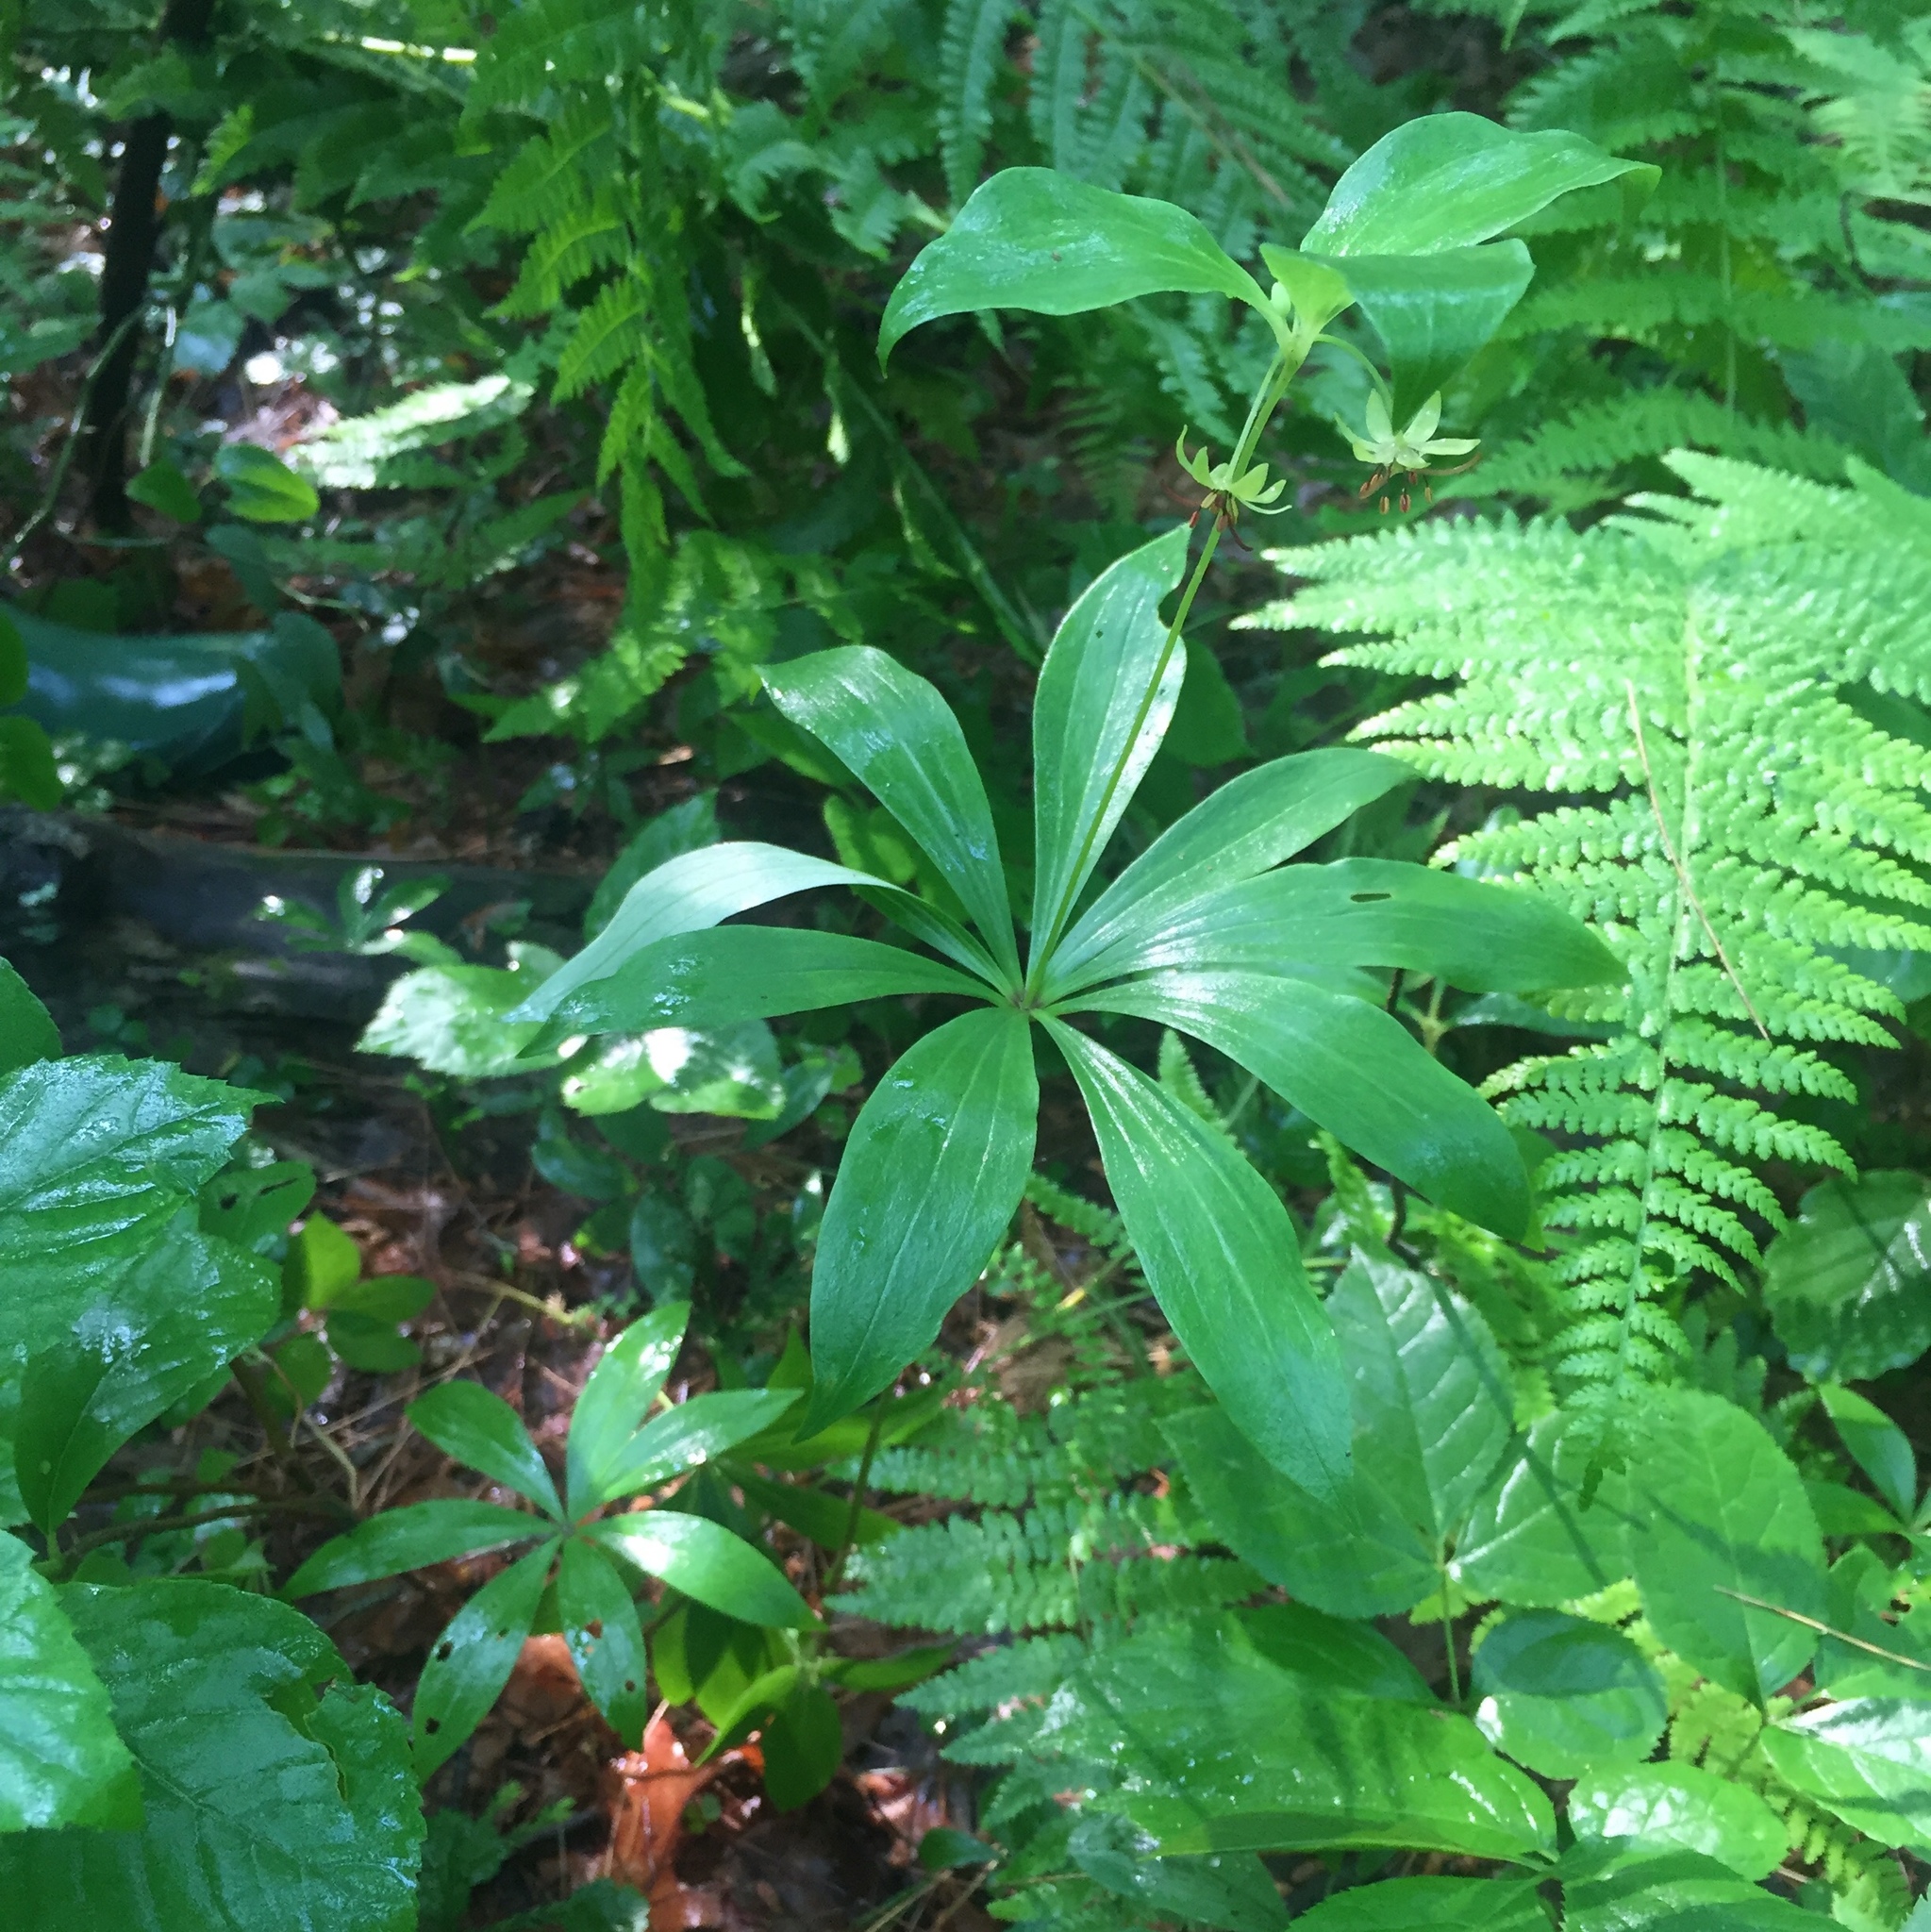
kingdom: Plantae
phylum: Tracheophyta
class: Liliopsida
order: Liliales
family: Liliaceae
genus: Medeola
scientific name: Medeola virginiana
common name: Indian cucumber-root
